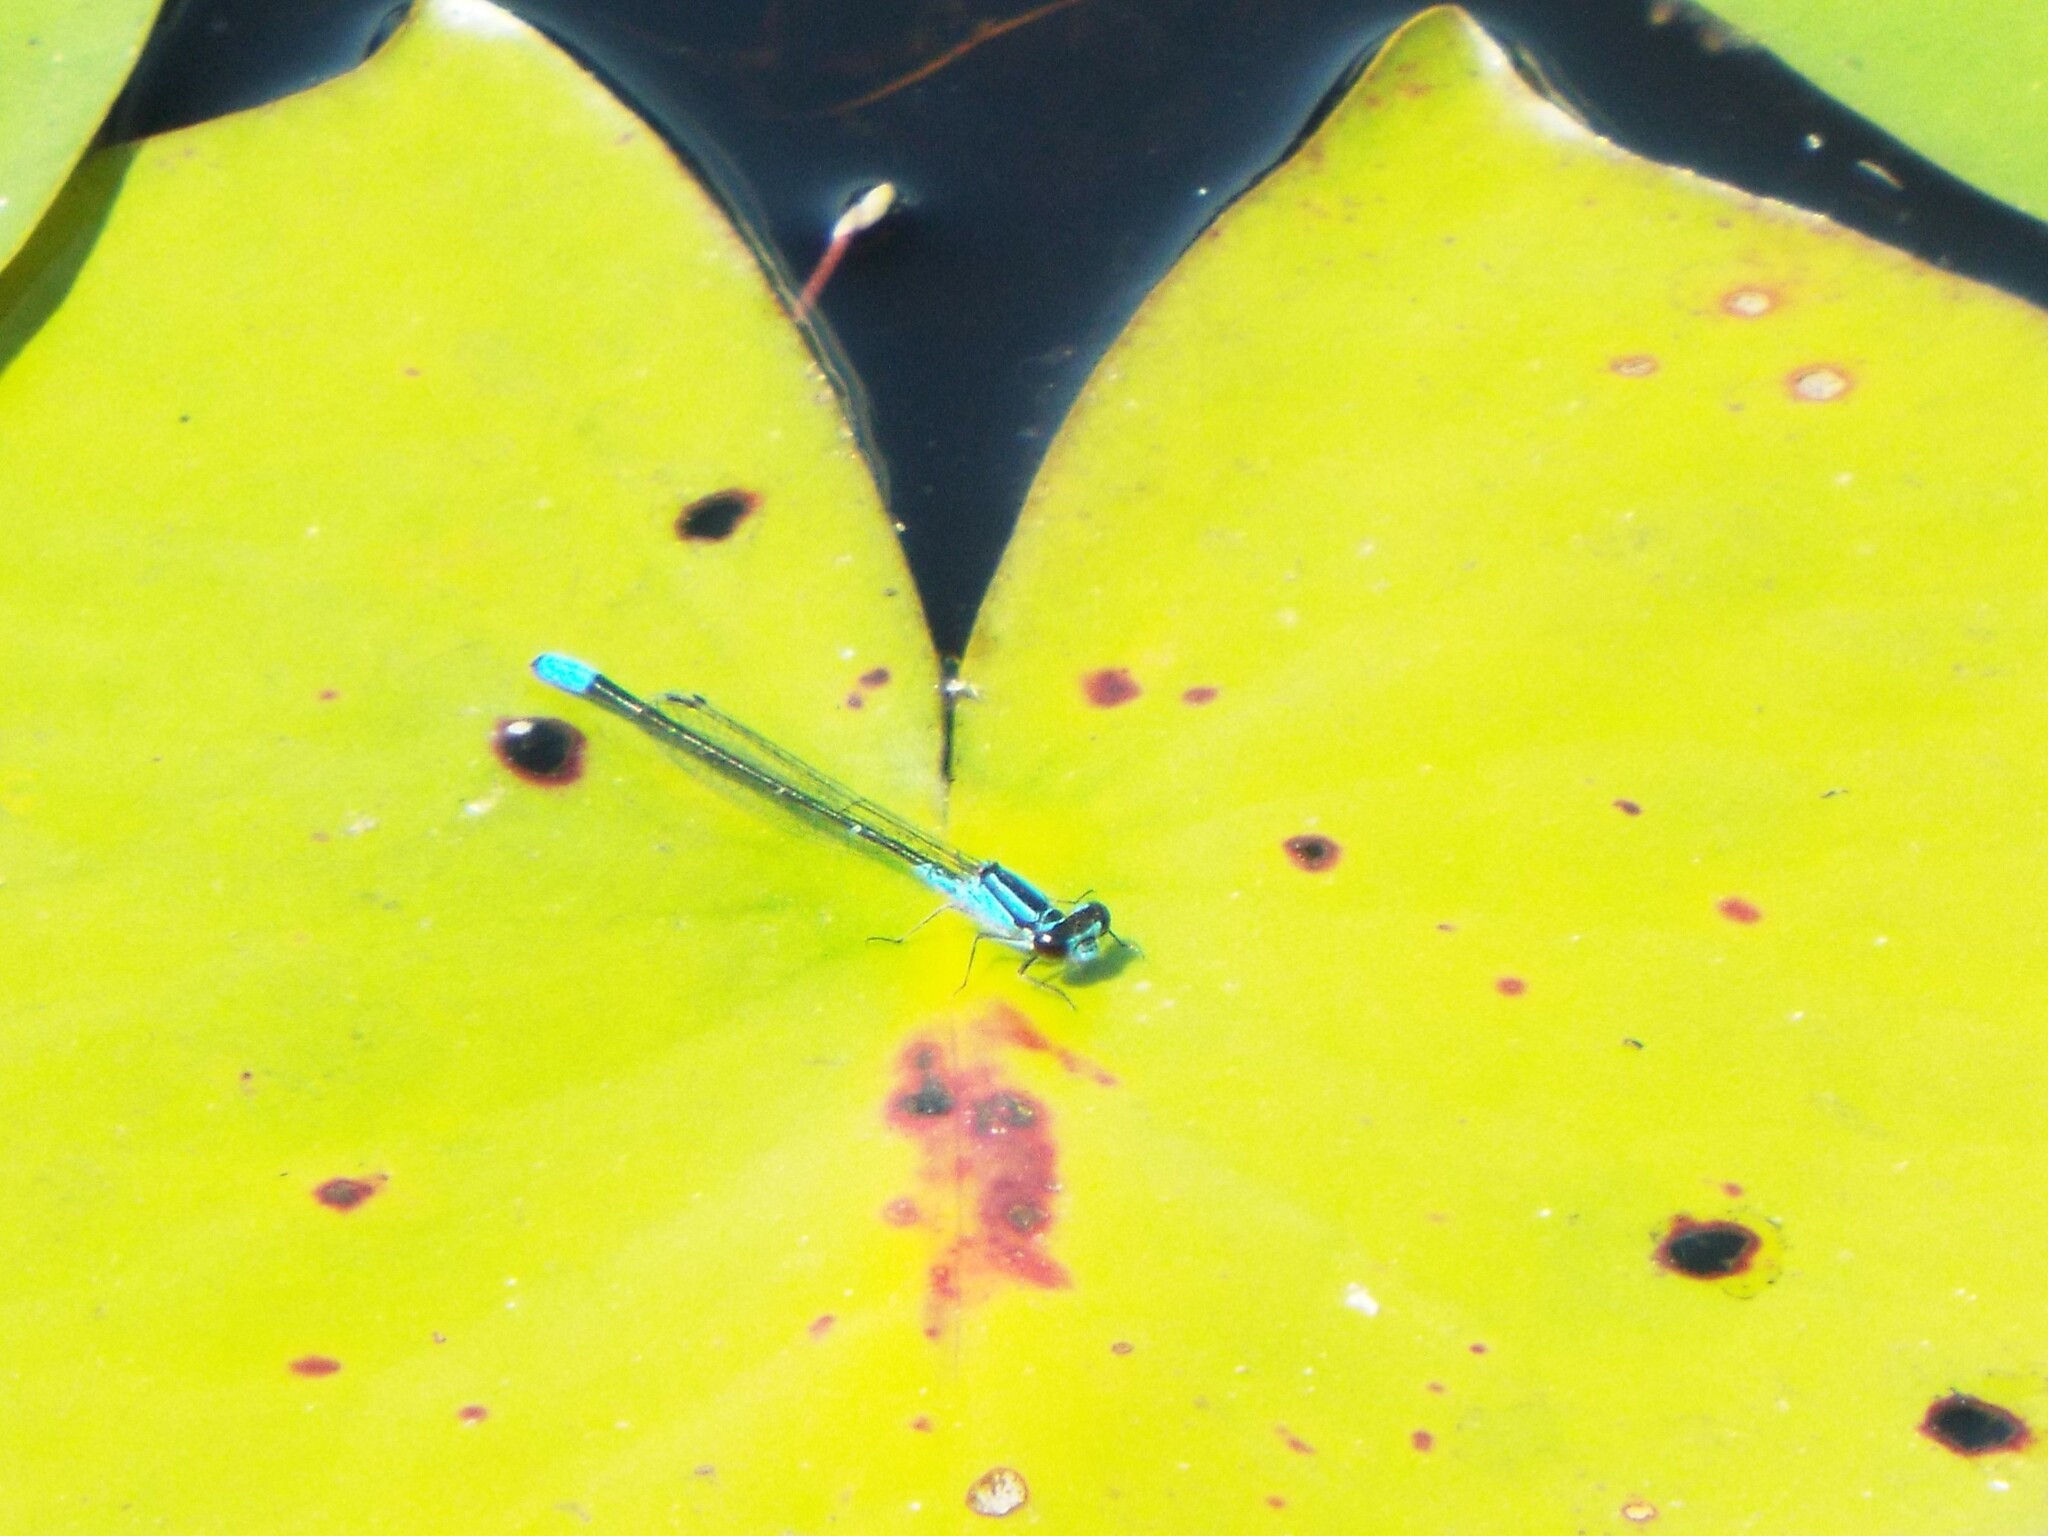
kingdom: Animalia
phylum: Arthropoda
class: Insecta
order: Odonata
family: Coenagrionidae
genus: Enallagma
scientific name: Enallagma geminatum
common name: Skimming bluet
